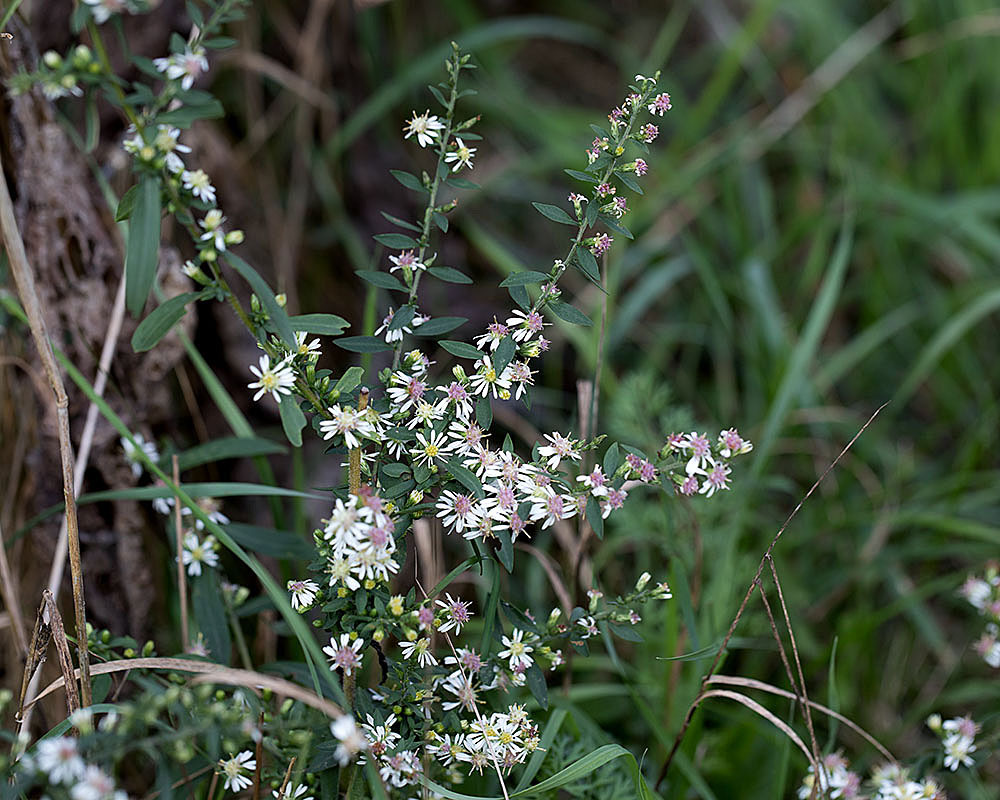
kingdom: Plantae
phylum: Tracheophyta
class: Magnoliopsida
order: Asterales
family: Asteraceae
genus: Symphyotrichum
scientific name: Symphyotrichum lateriflorum
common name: Calico aster
